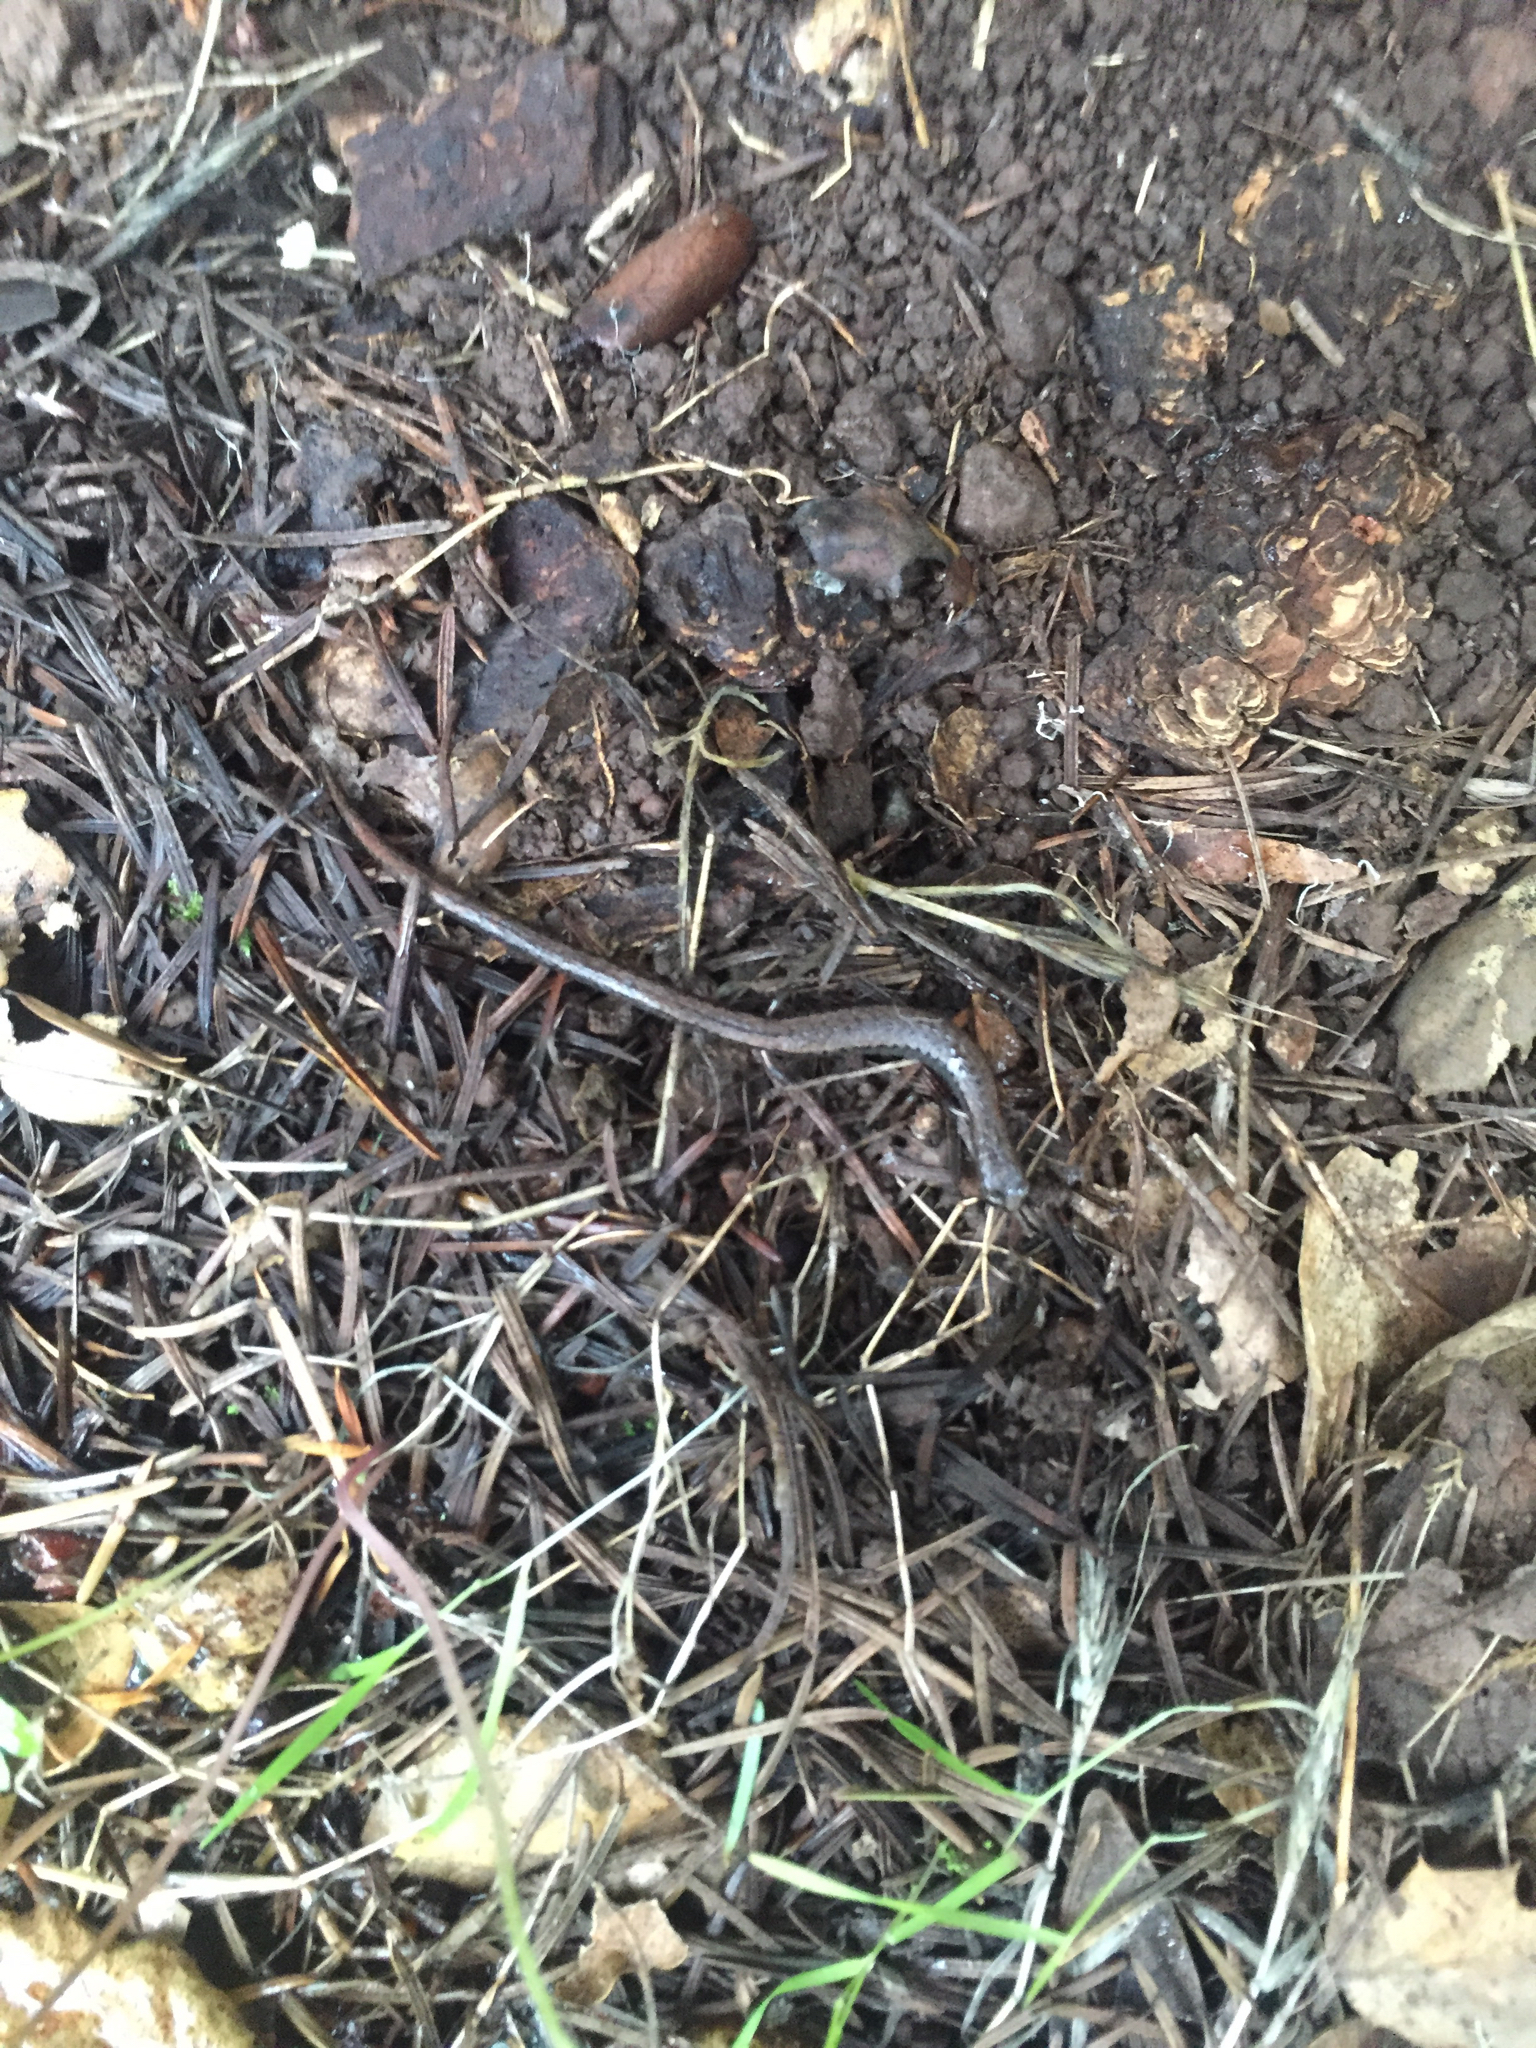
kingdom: Animalia
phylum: Chordata
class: Amphibia
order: Caudata
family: Plethodontidae
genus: Batrachoseps
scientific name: Batrachoseps attenuatus
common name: California slender salamander
